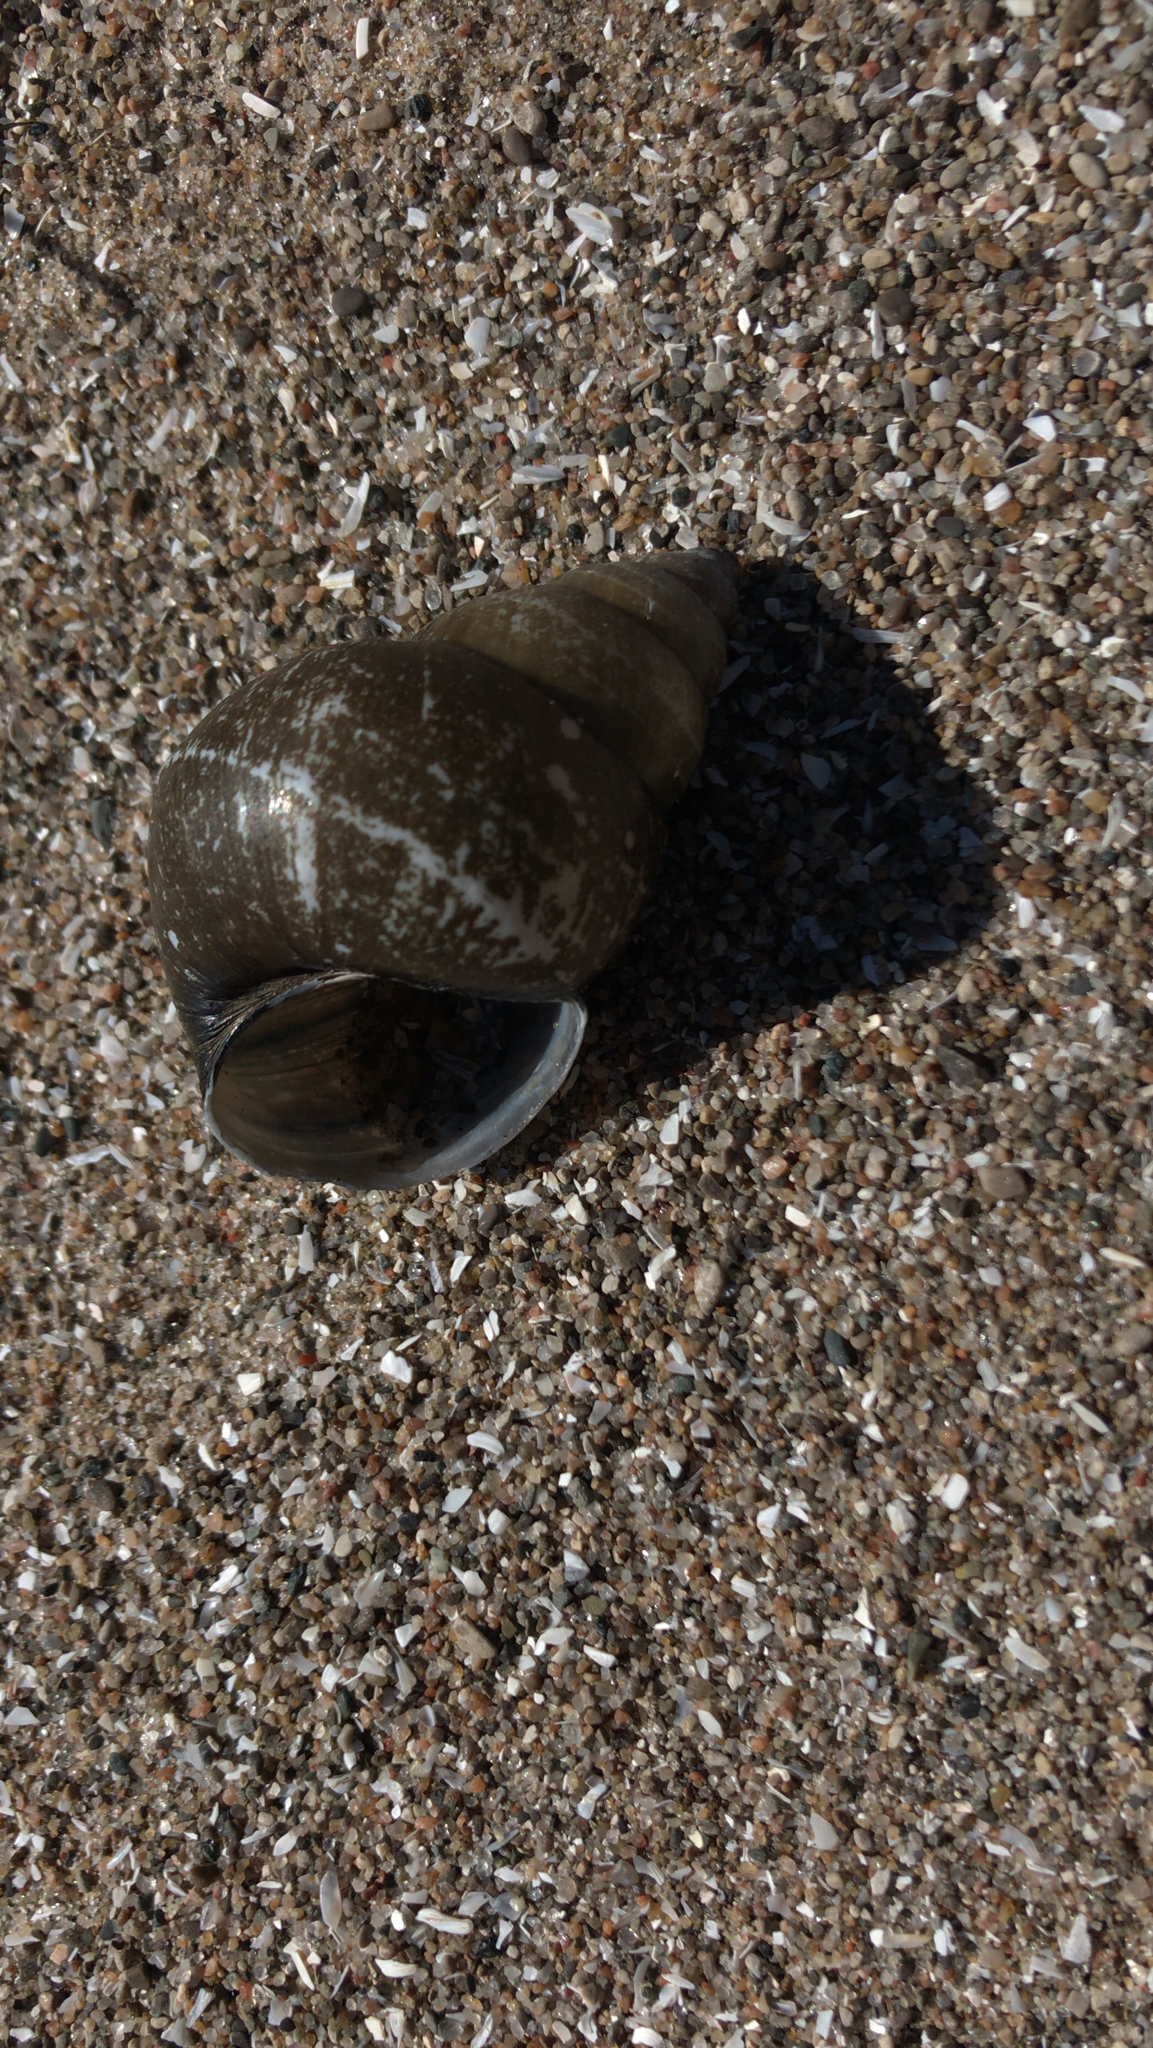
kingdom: Animalia
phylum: Mollusca
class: Gastropoda
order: Architaenioglossa
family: Viviparidae
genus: Cipangopaludina
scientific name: Cipangopaludina chinensis
